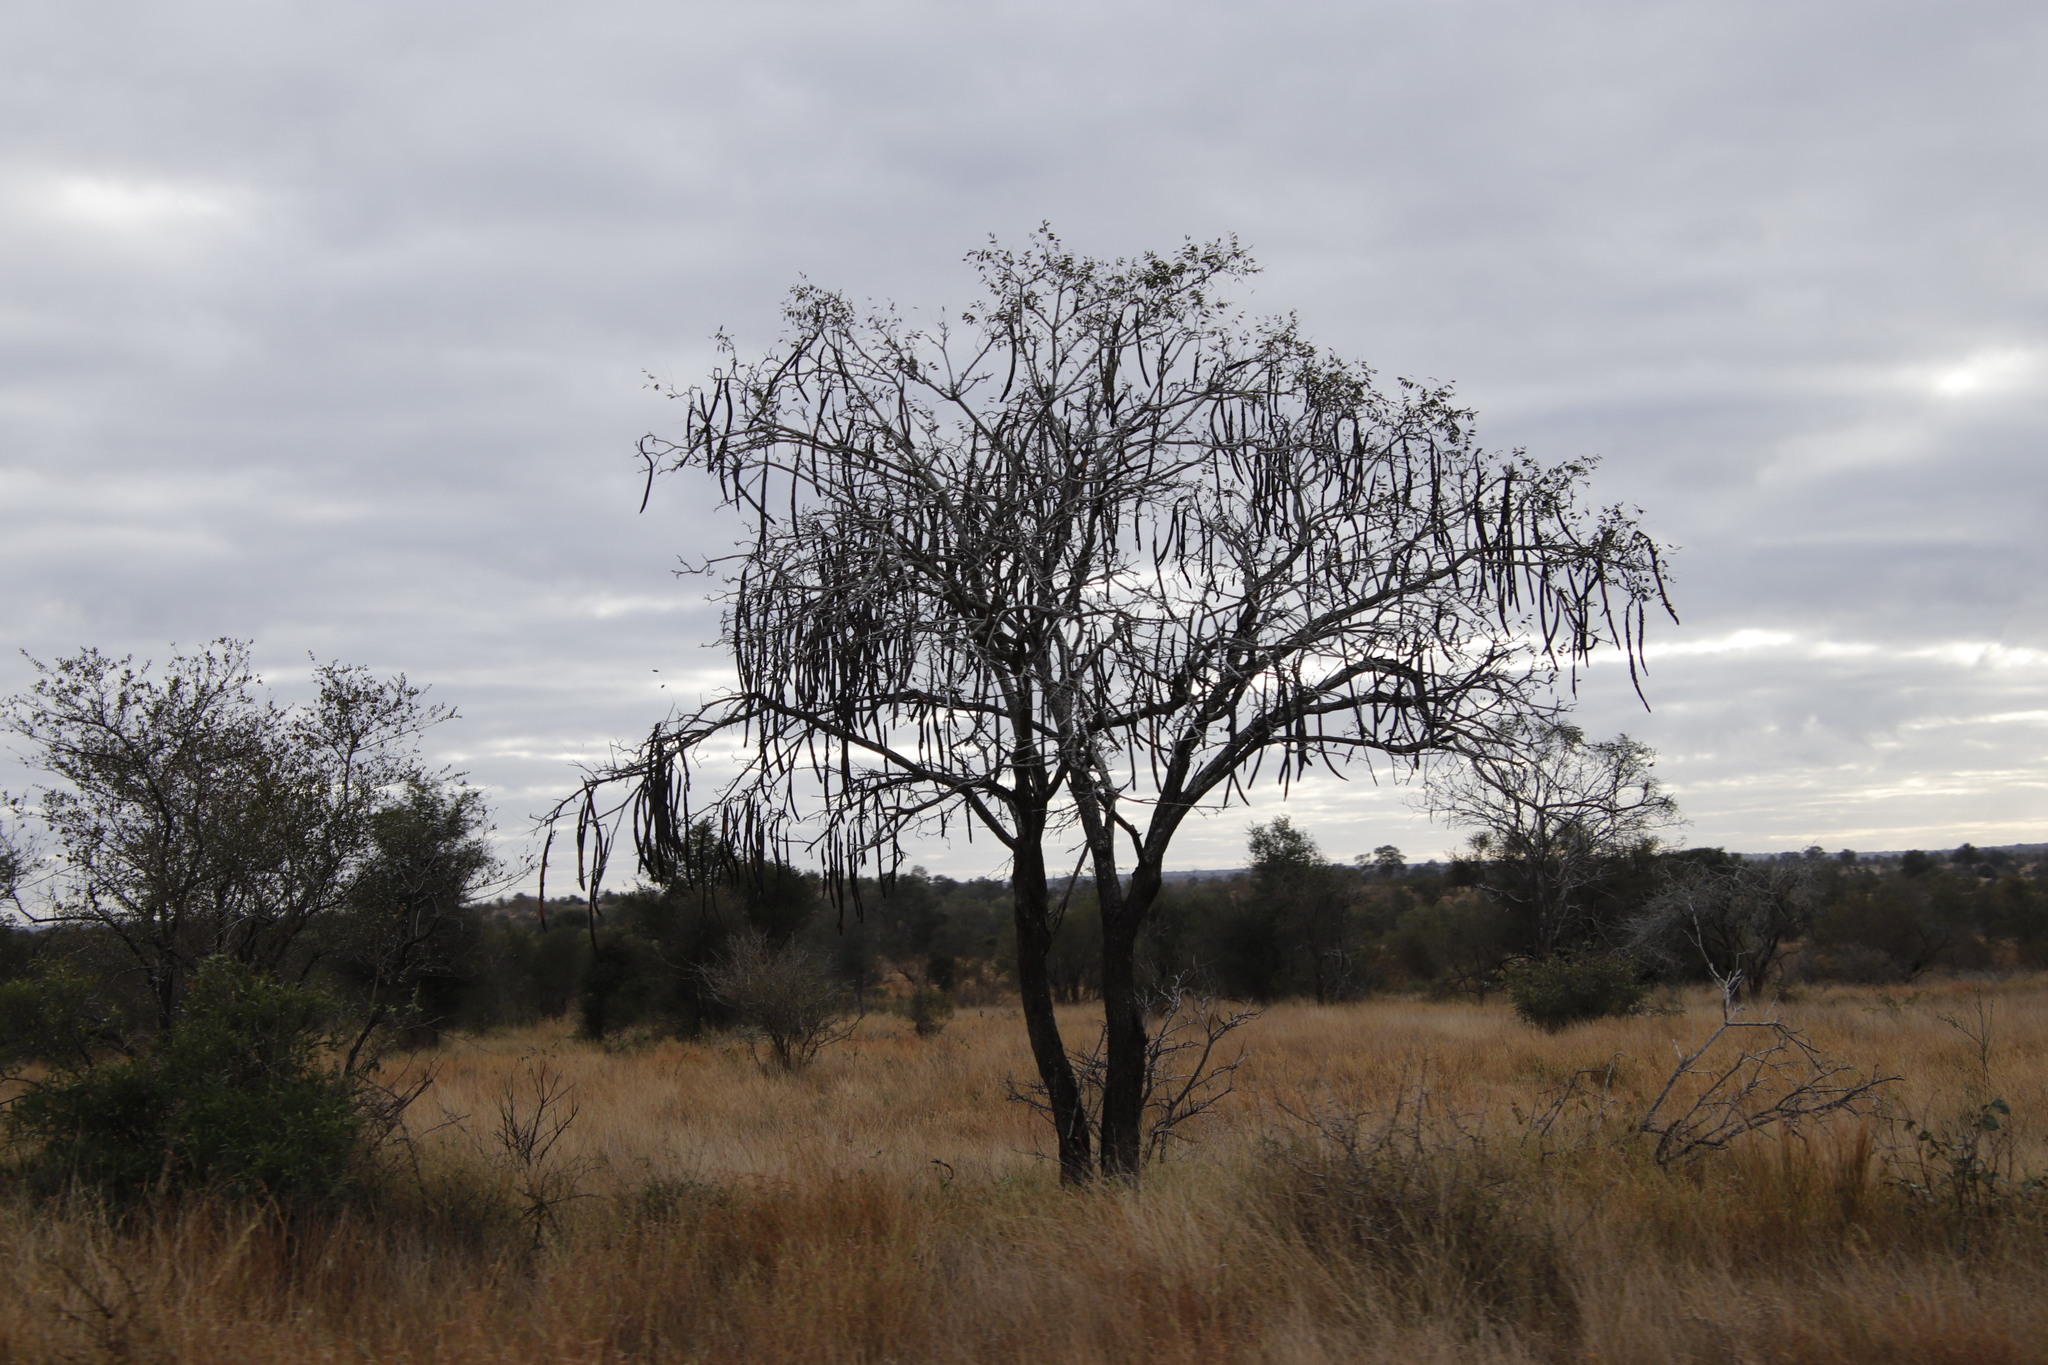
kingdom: Plantae
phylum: Tracheophyta
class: Magnoliopsida
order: Fabales
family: Fabaceae
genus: Cassia
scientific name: Cassia abbreviata
